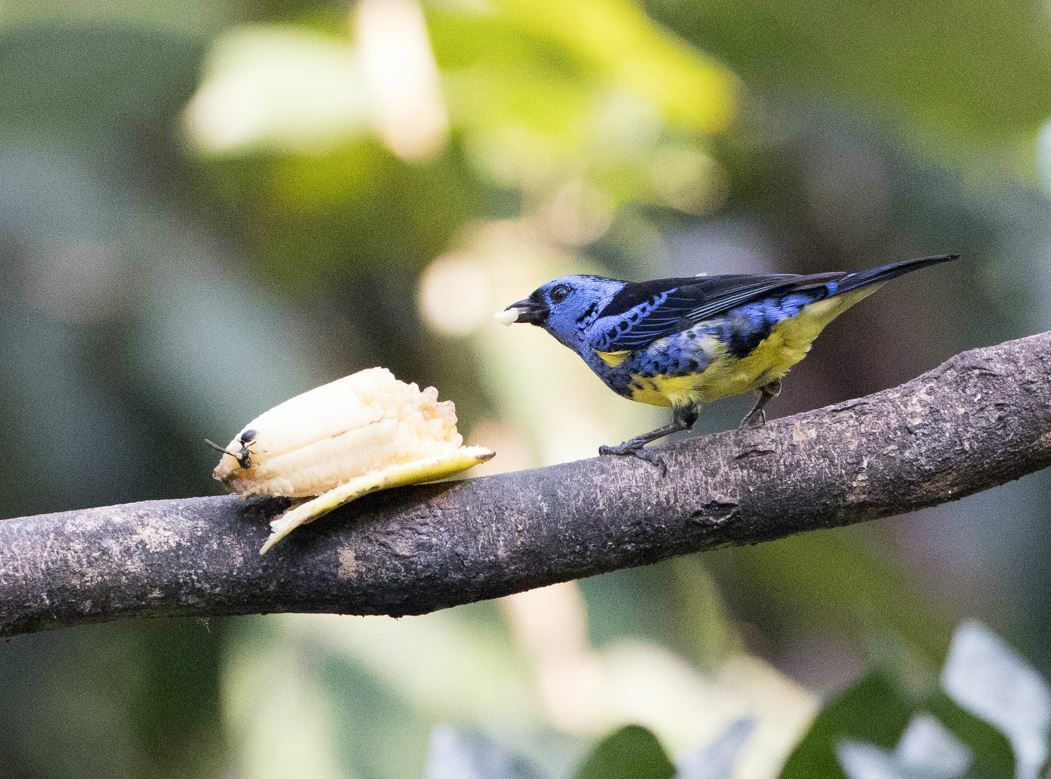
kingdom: Animalia
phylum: Chordata
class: Aves
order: Passeriformes
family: Thraupidae
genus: Tangara
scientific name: Tangara mexicana
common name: Turquoise tanager
